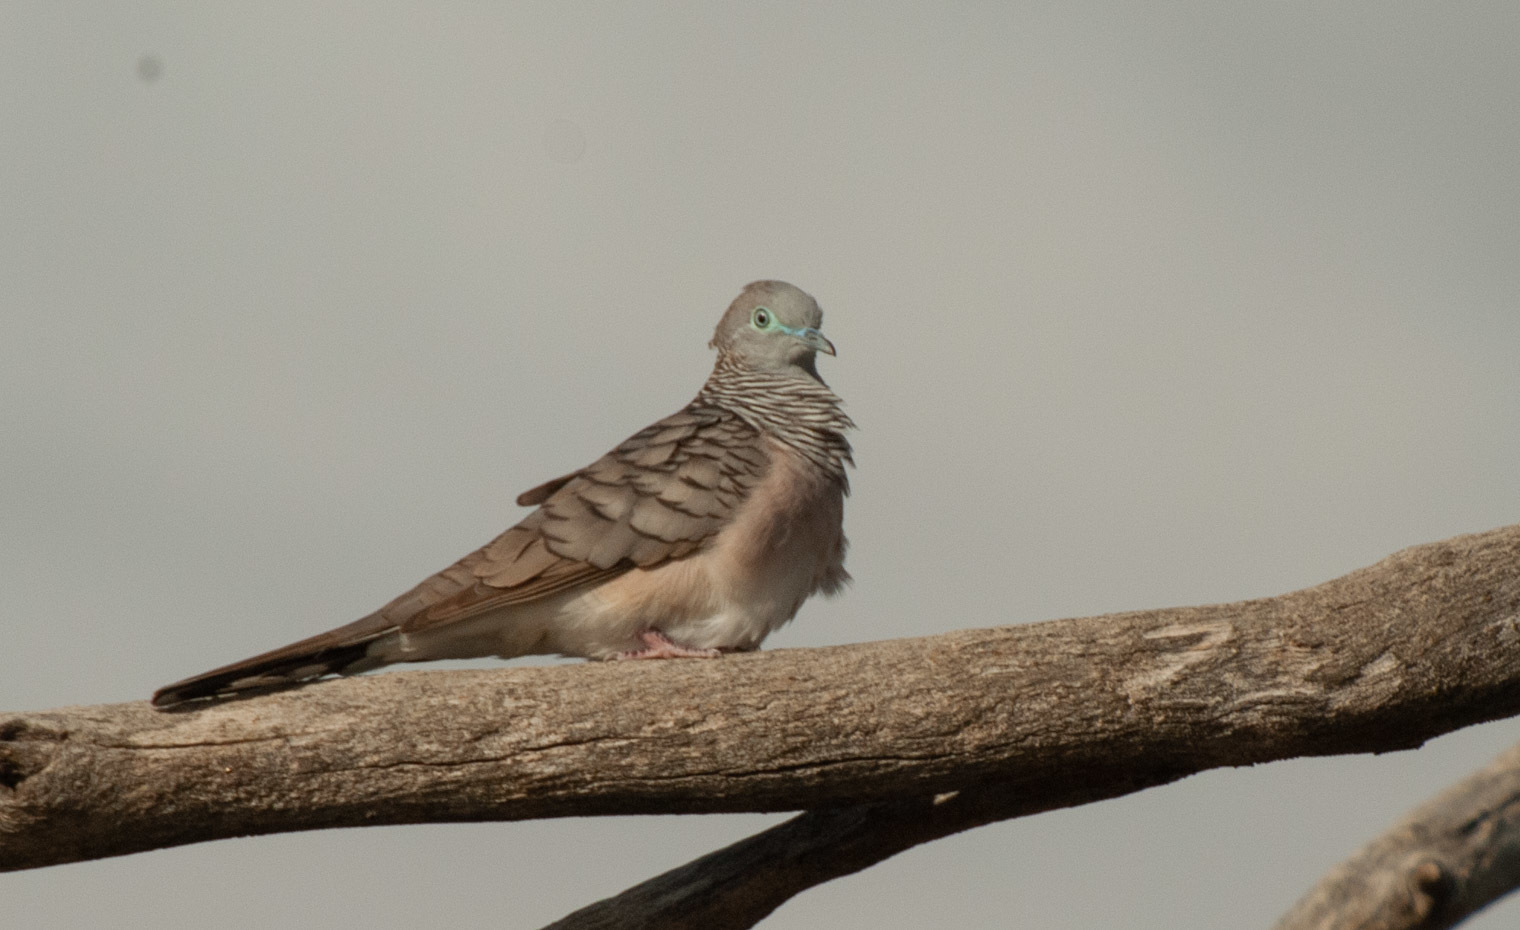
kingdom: Animalia
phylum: Chordata
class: Aves
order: Columbiformes
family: Columbidae
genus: Geopelia
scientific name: Geopelia placida
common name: Peaceful dove
